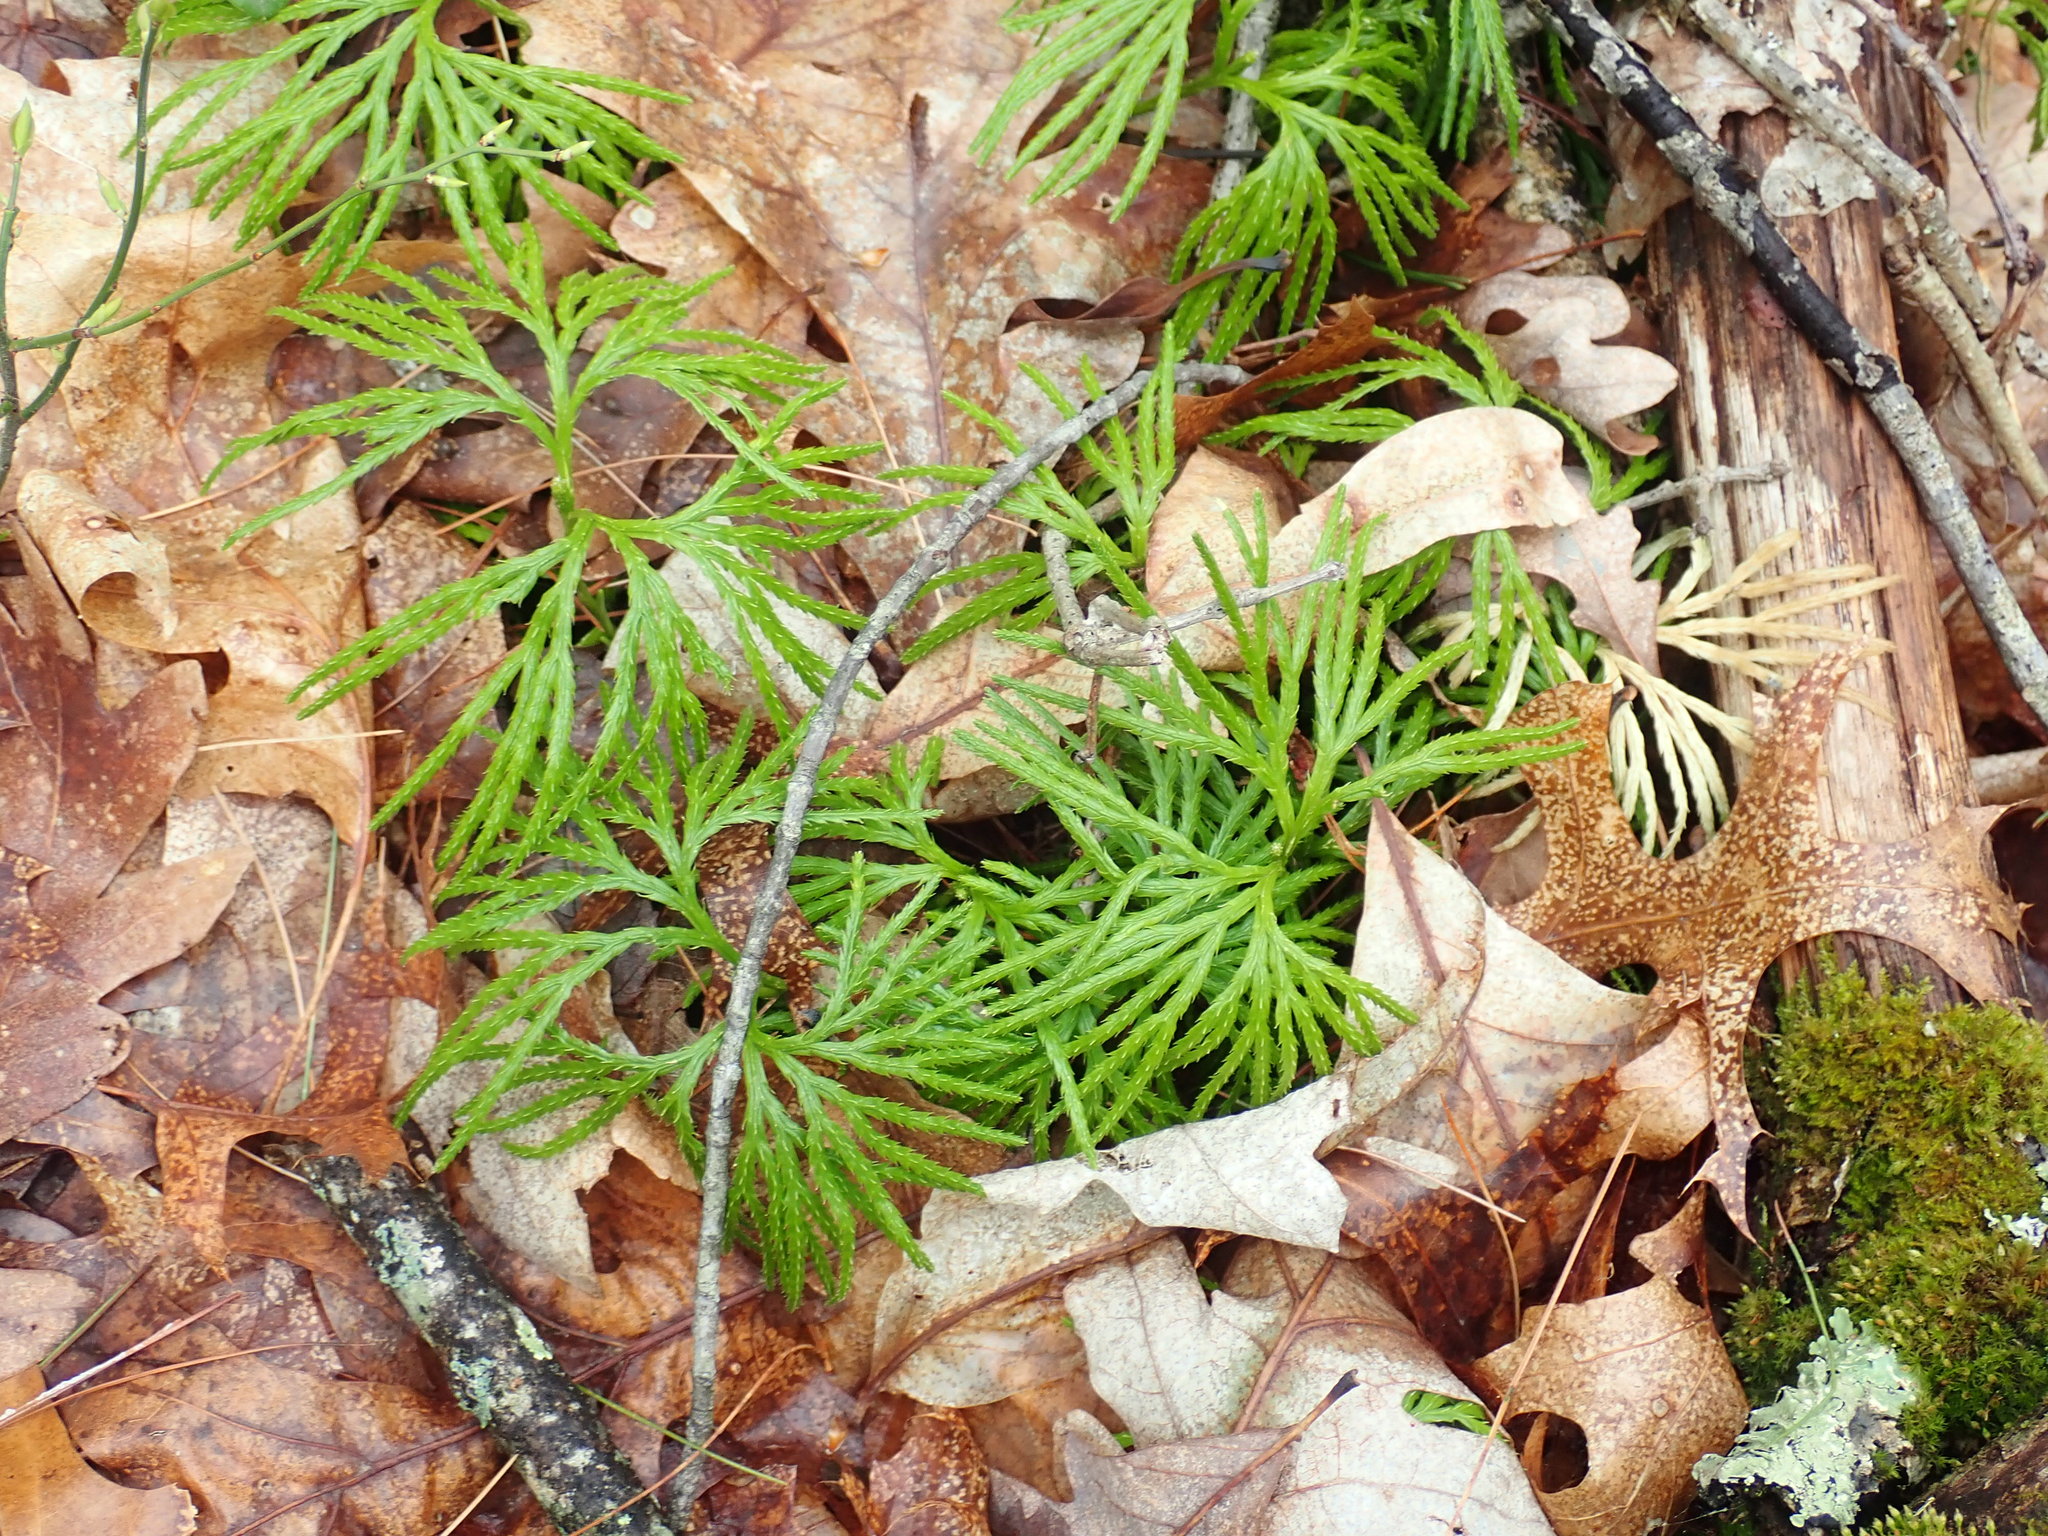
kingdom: Plantae
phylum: Tracheophyta
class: Lycopodiopsida
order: Lycopodiales
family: Lycopodiaceae
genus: Diphasiastrum
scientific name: Diphasiastrum digitatum
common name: Southern running-pine
